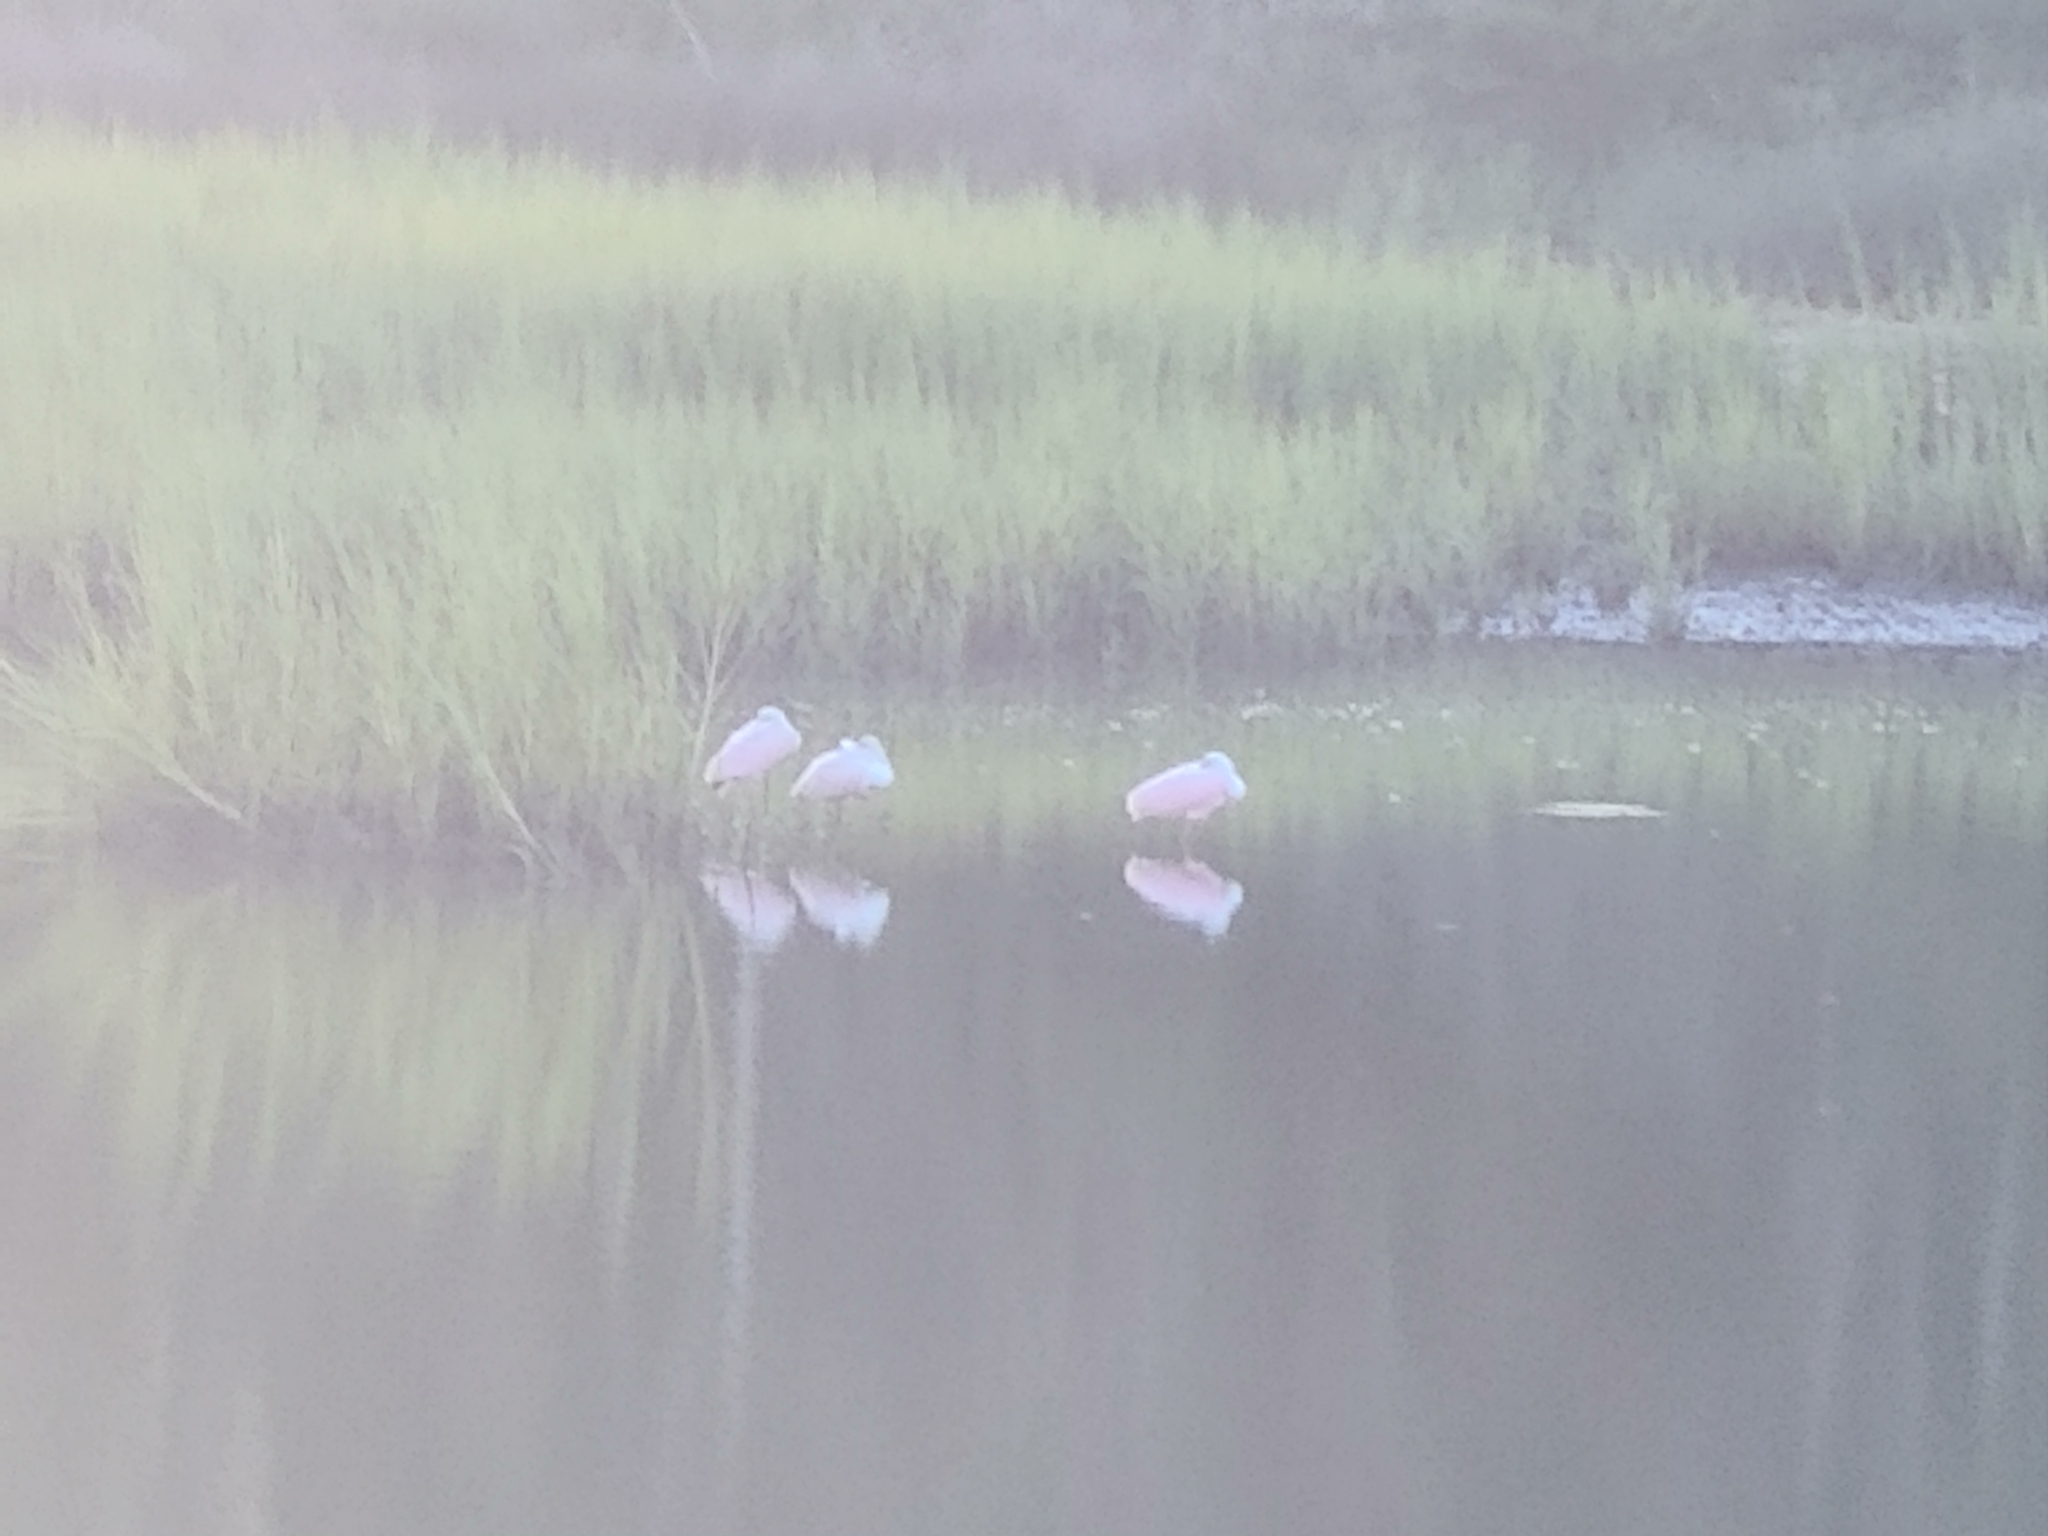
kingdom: Animalia
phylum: Chordata
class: Aves
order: Pelecaniformes
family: Threskiornithidae
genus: Platalea
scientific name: Platalea ajaja
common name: Roseate spoonbill
